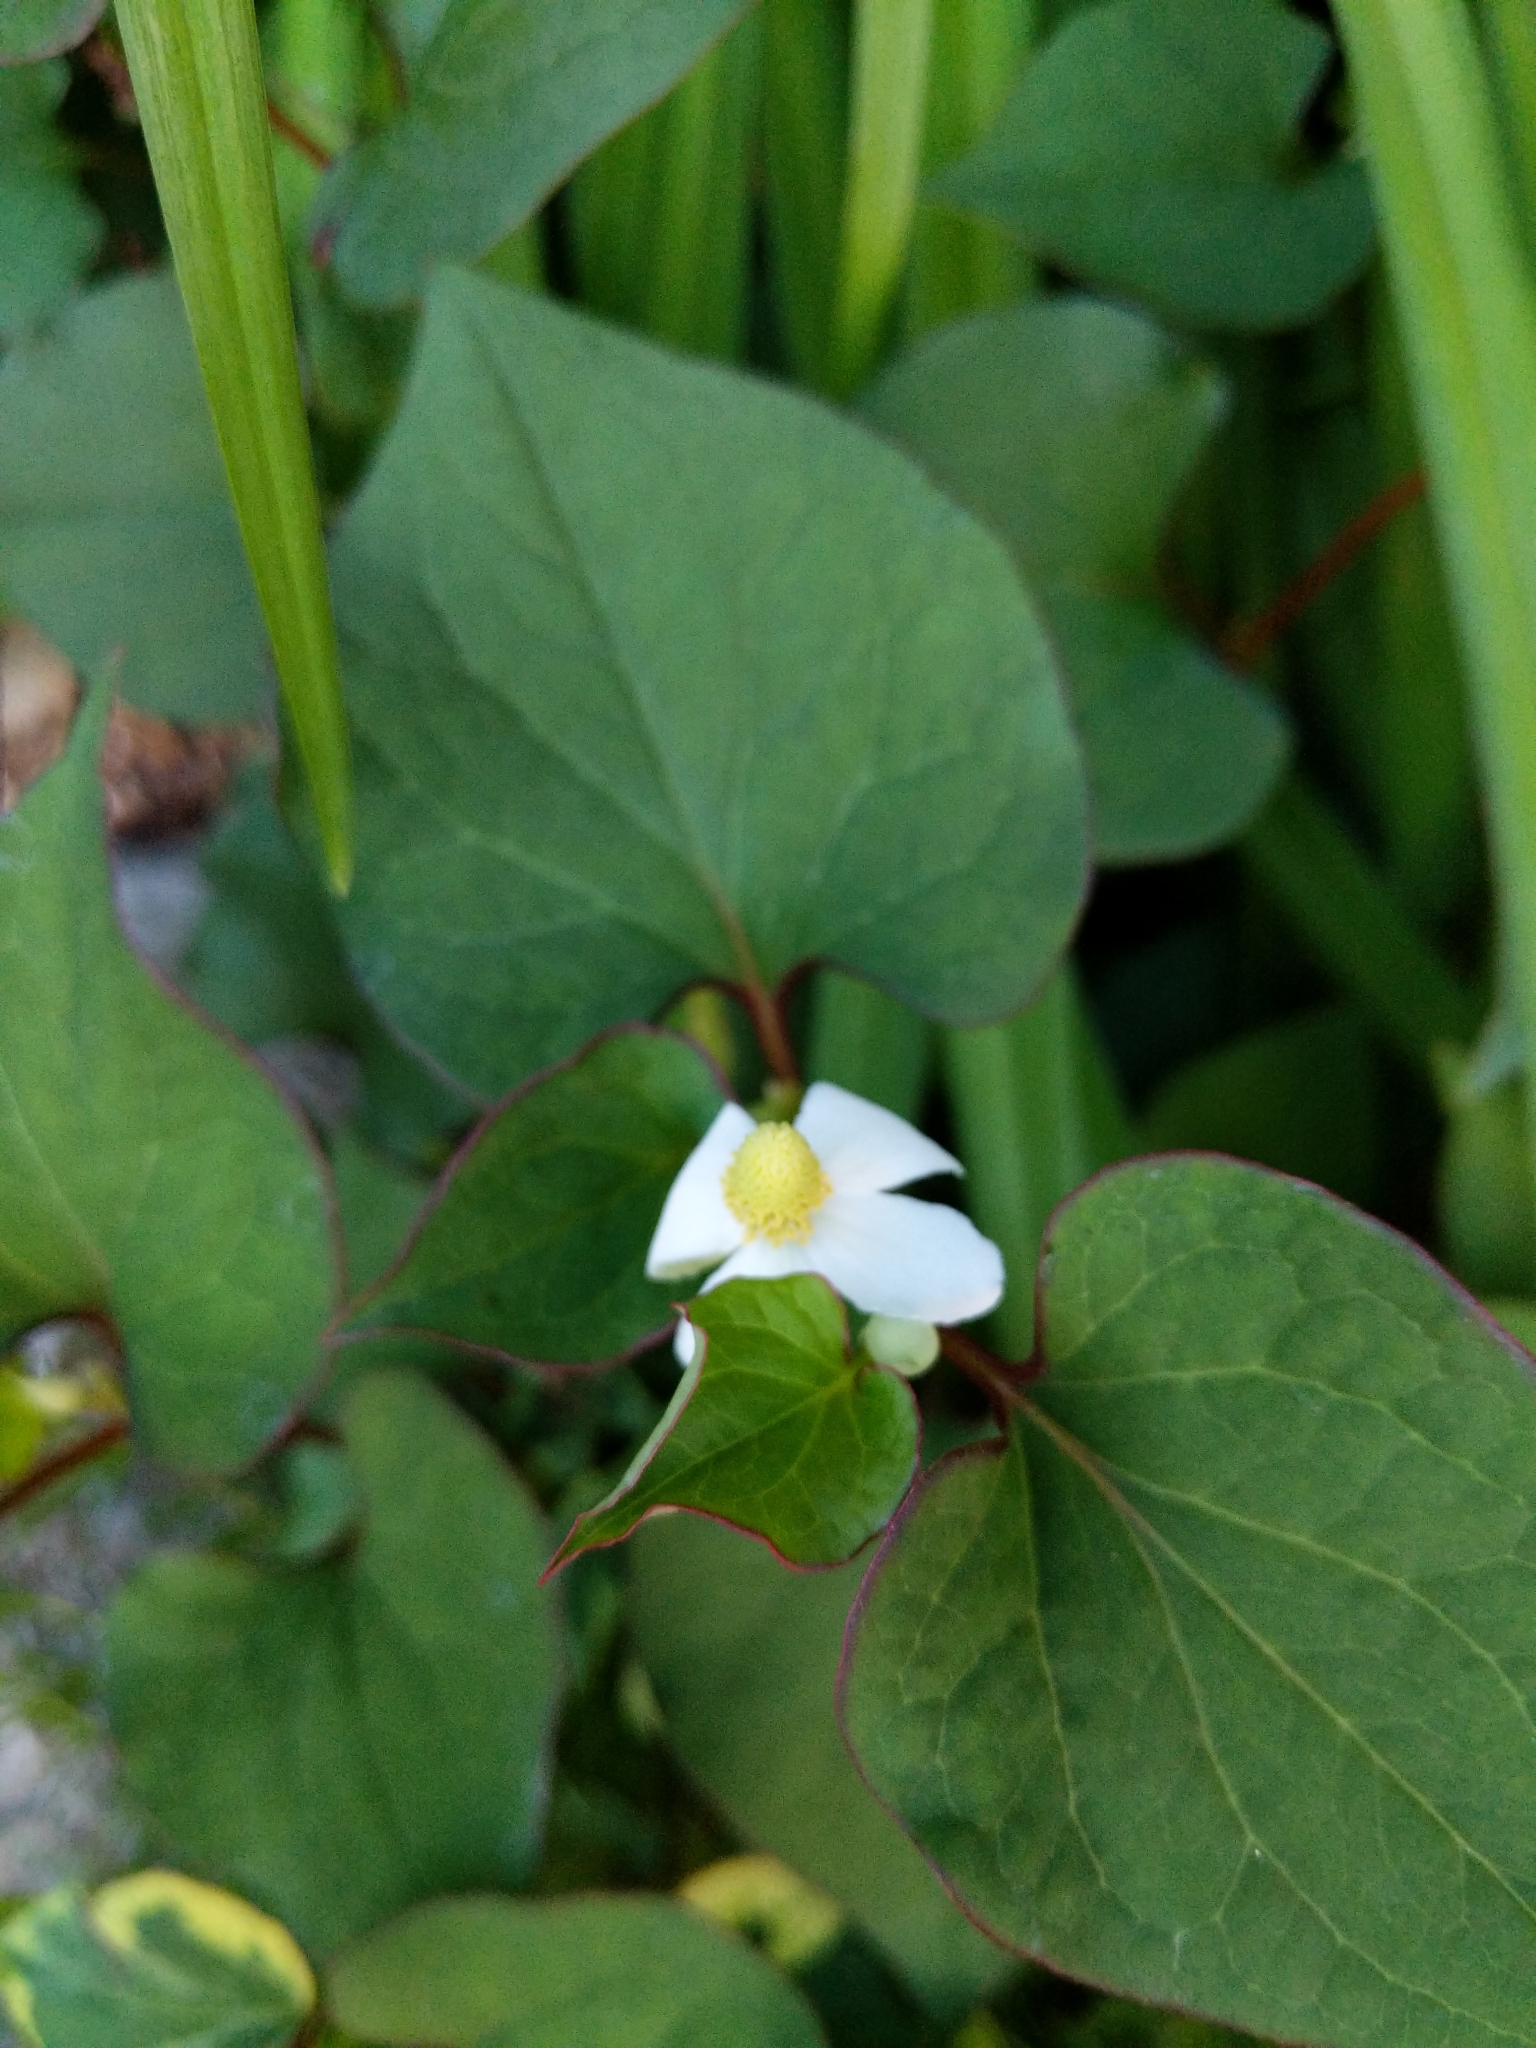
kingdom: Plantae
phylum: Tracheophyta
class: Magnoliopsida
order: Piperales
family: Saururaceae
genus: Houttuynia
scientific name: Houttuynia cordata
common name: Chameleon
